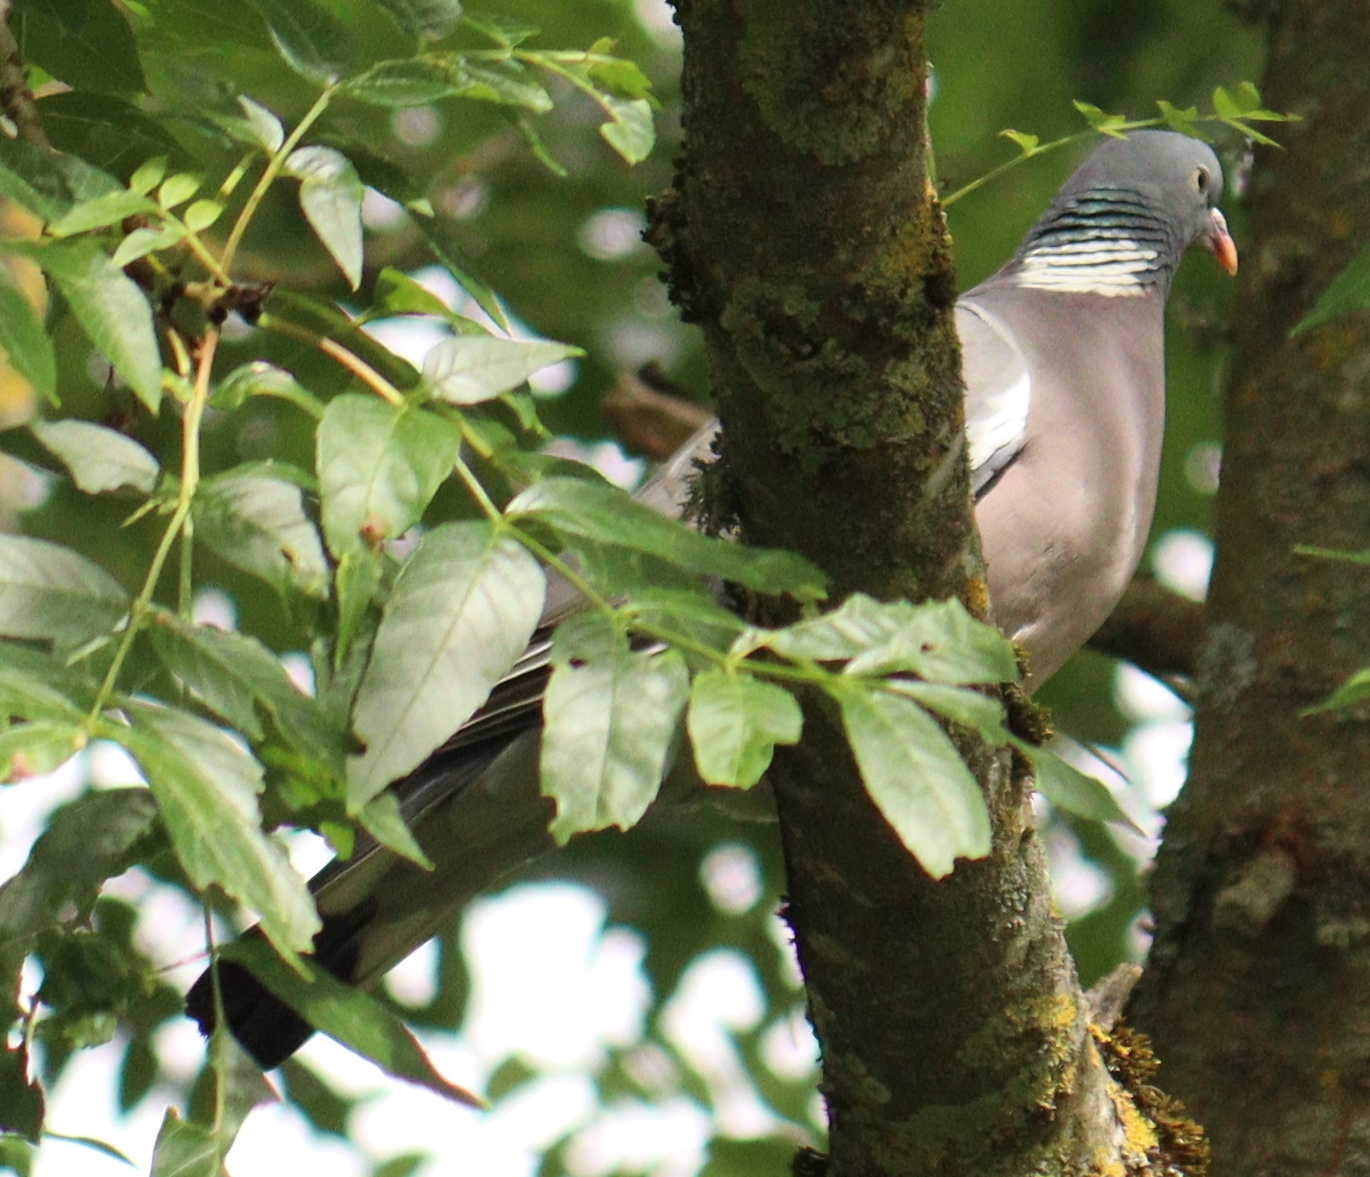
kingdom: Animalia
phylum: Chordata
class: Aves
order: Columbiformes
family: Columbidae
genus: Columba
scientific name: Columba palumbus
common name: Common wood pigeon
